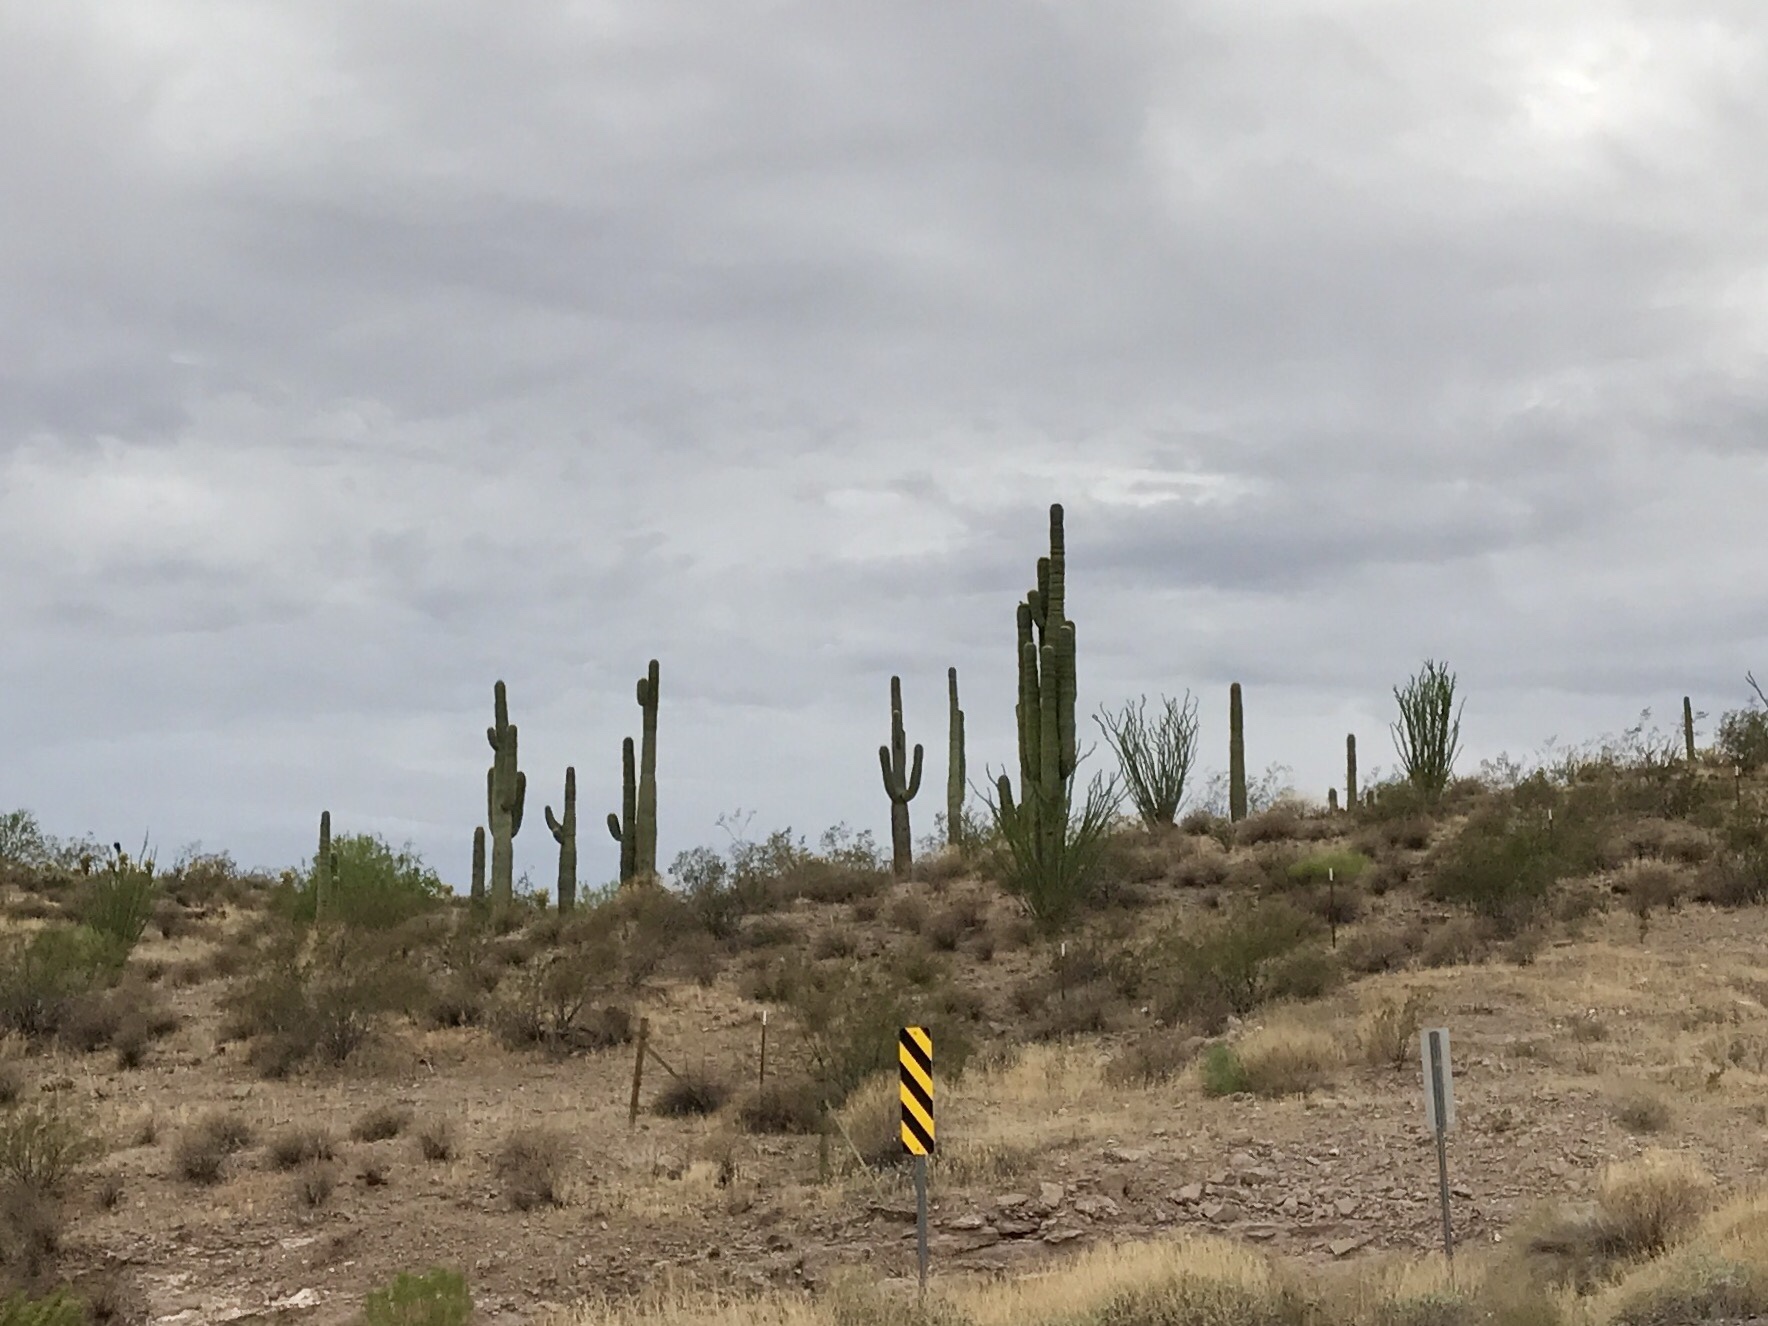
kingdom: Plantae
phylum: Tracheophyta
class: Magnoliopsida
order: Caryophyllales
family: Cactaceae
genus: Carnegiea
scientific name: Carnegiea gigantea
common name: Saguaro
